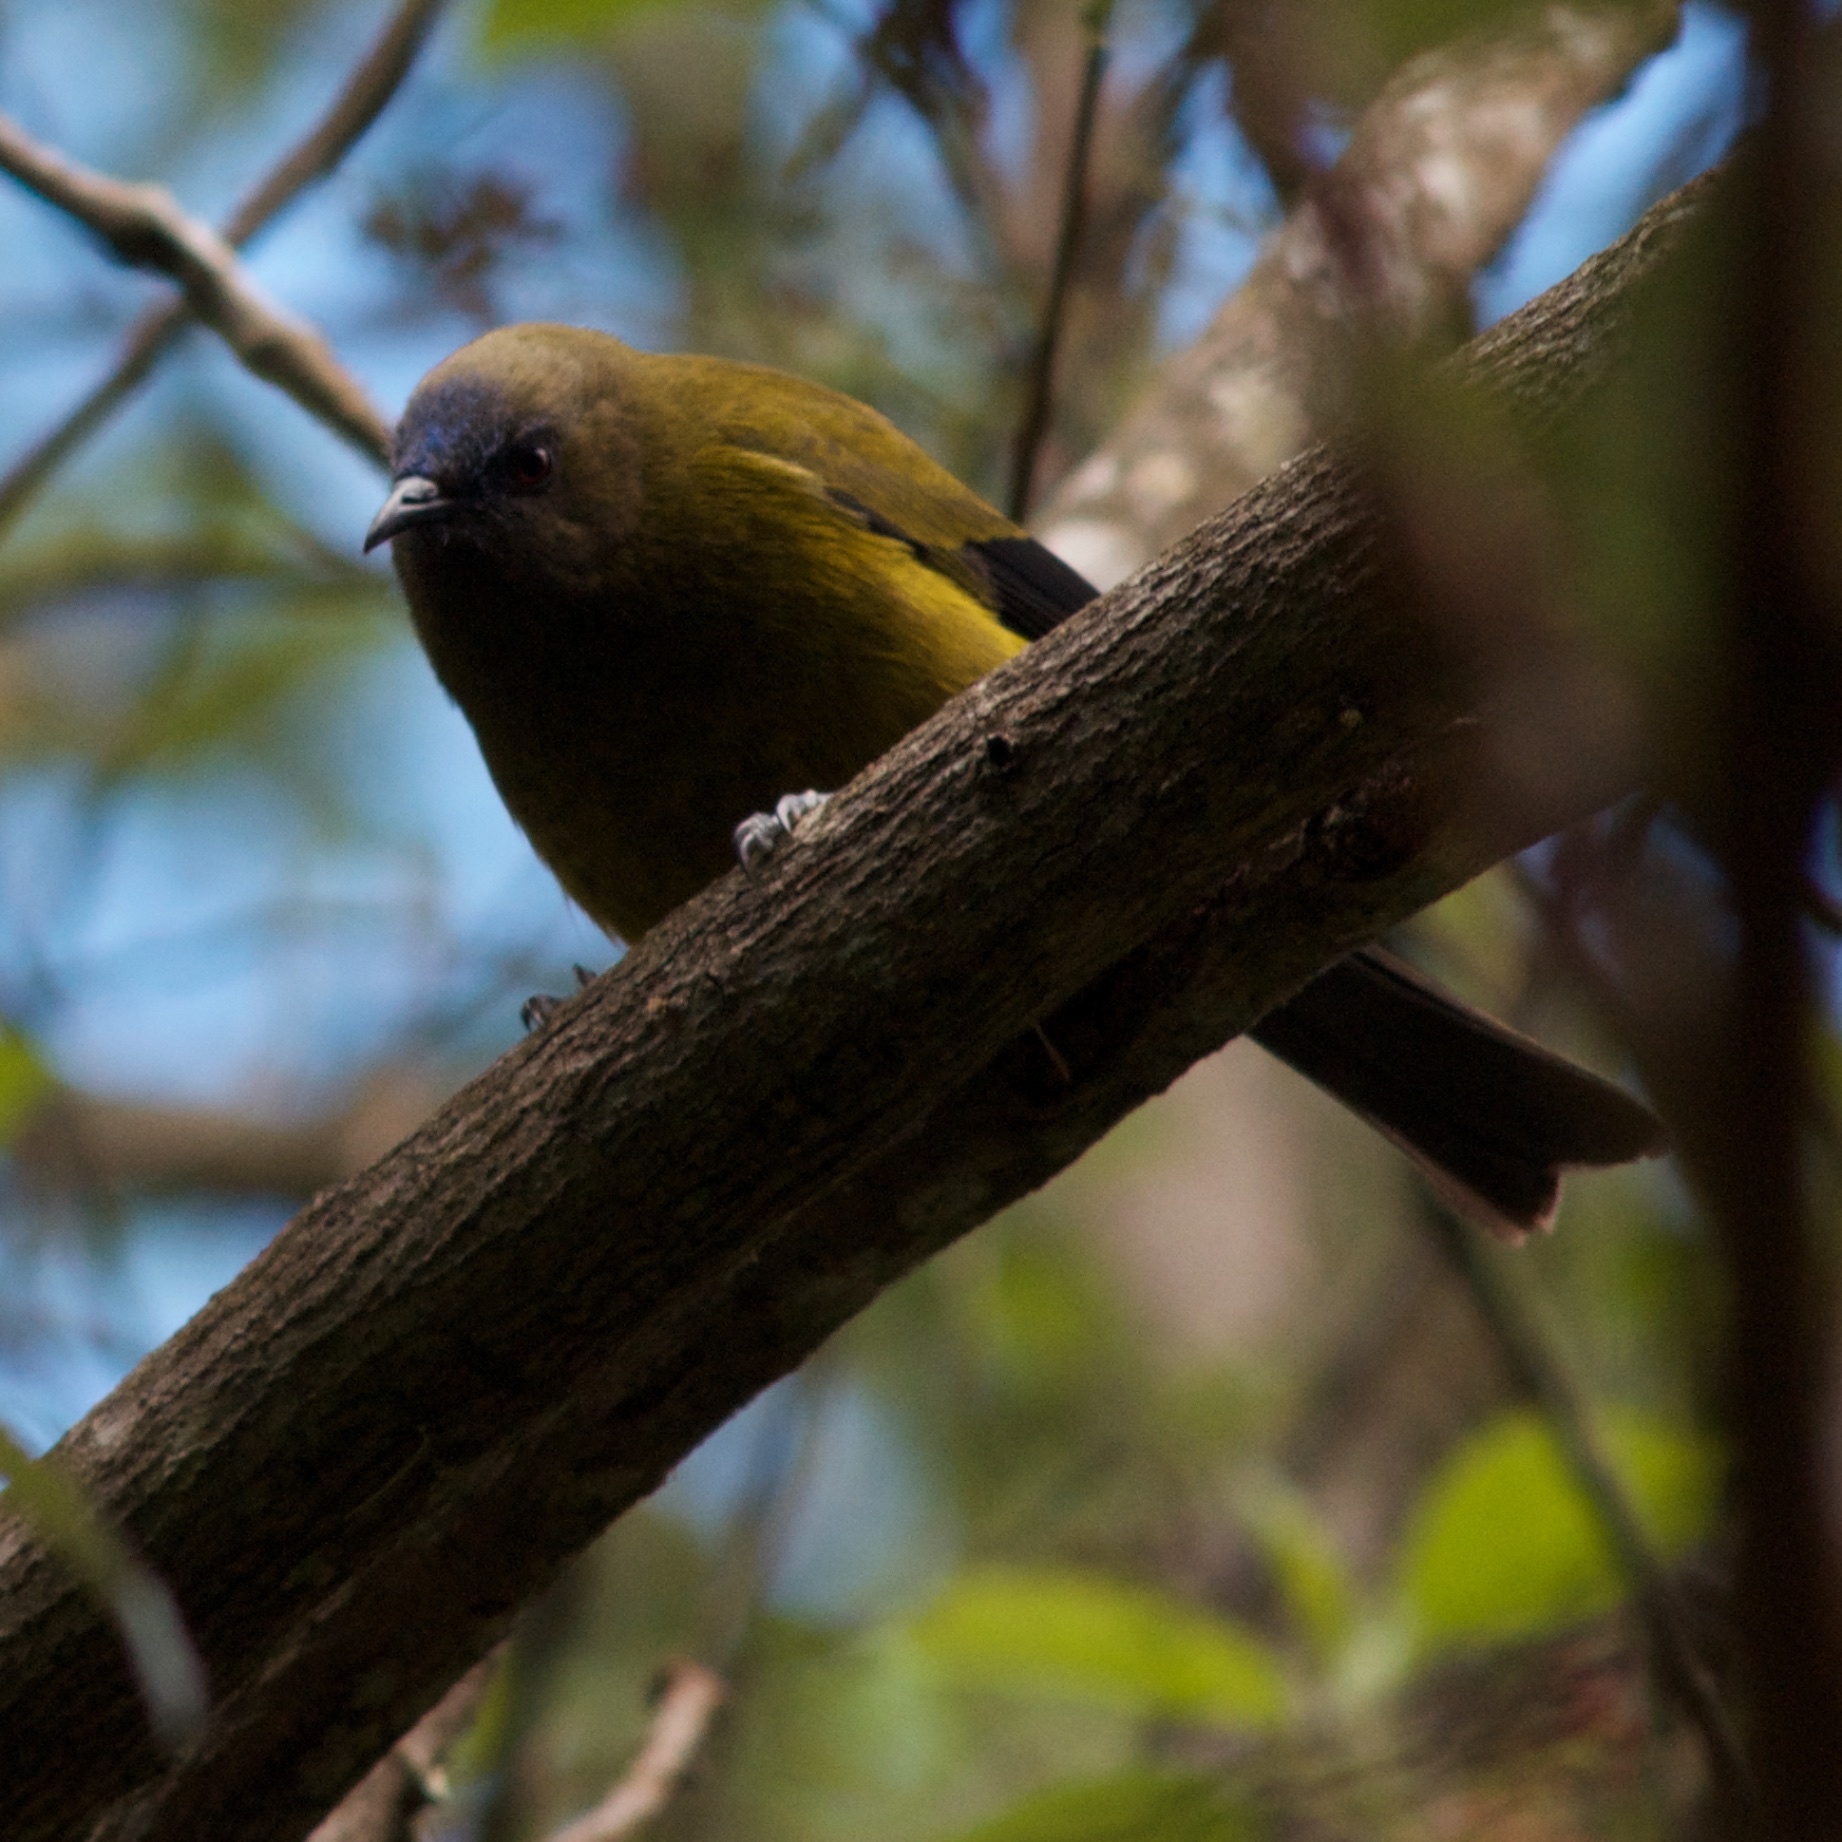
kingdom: Animalia
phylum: Chordata
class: Aves
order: Passeriformes
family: Meliphagidae
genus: Anthornis
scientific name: Anthornis melanura
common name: New zealand bellbird
